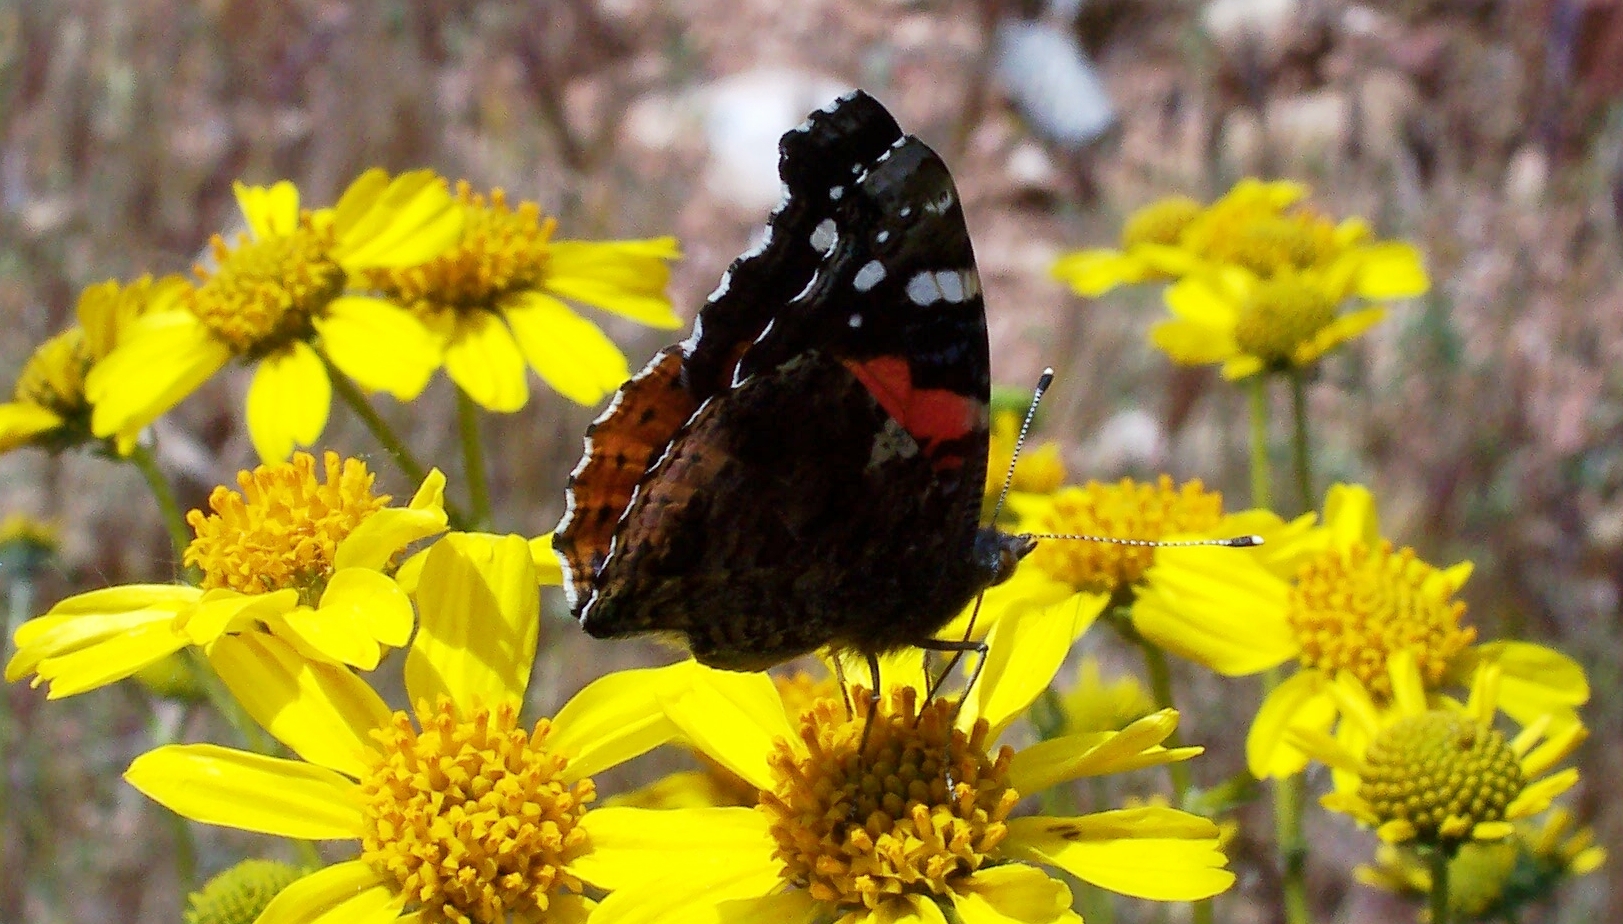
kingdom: Animalia
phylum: Arthropoda
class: Insecta
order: Lepidoptera
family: Nymphalidae
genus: Vanessa
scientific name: Vanessa atalanta
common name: Red admiral
